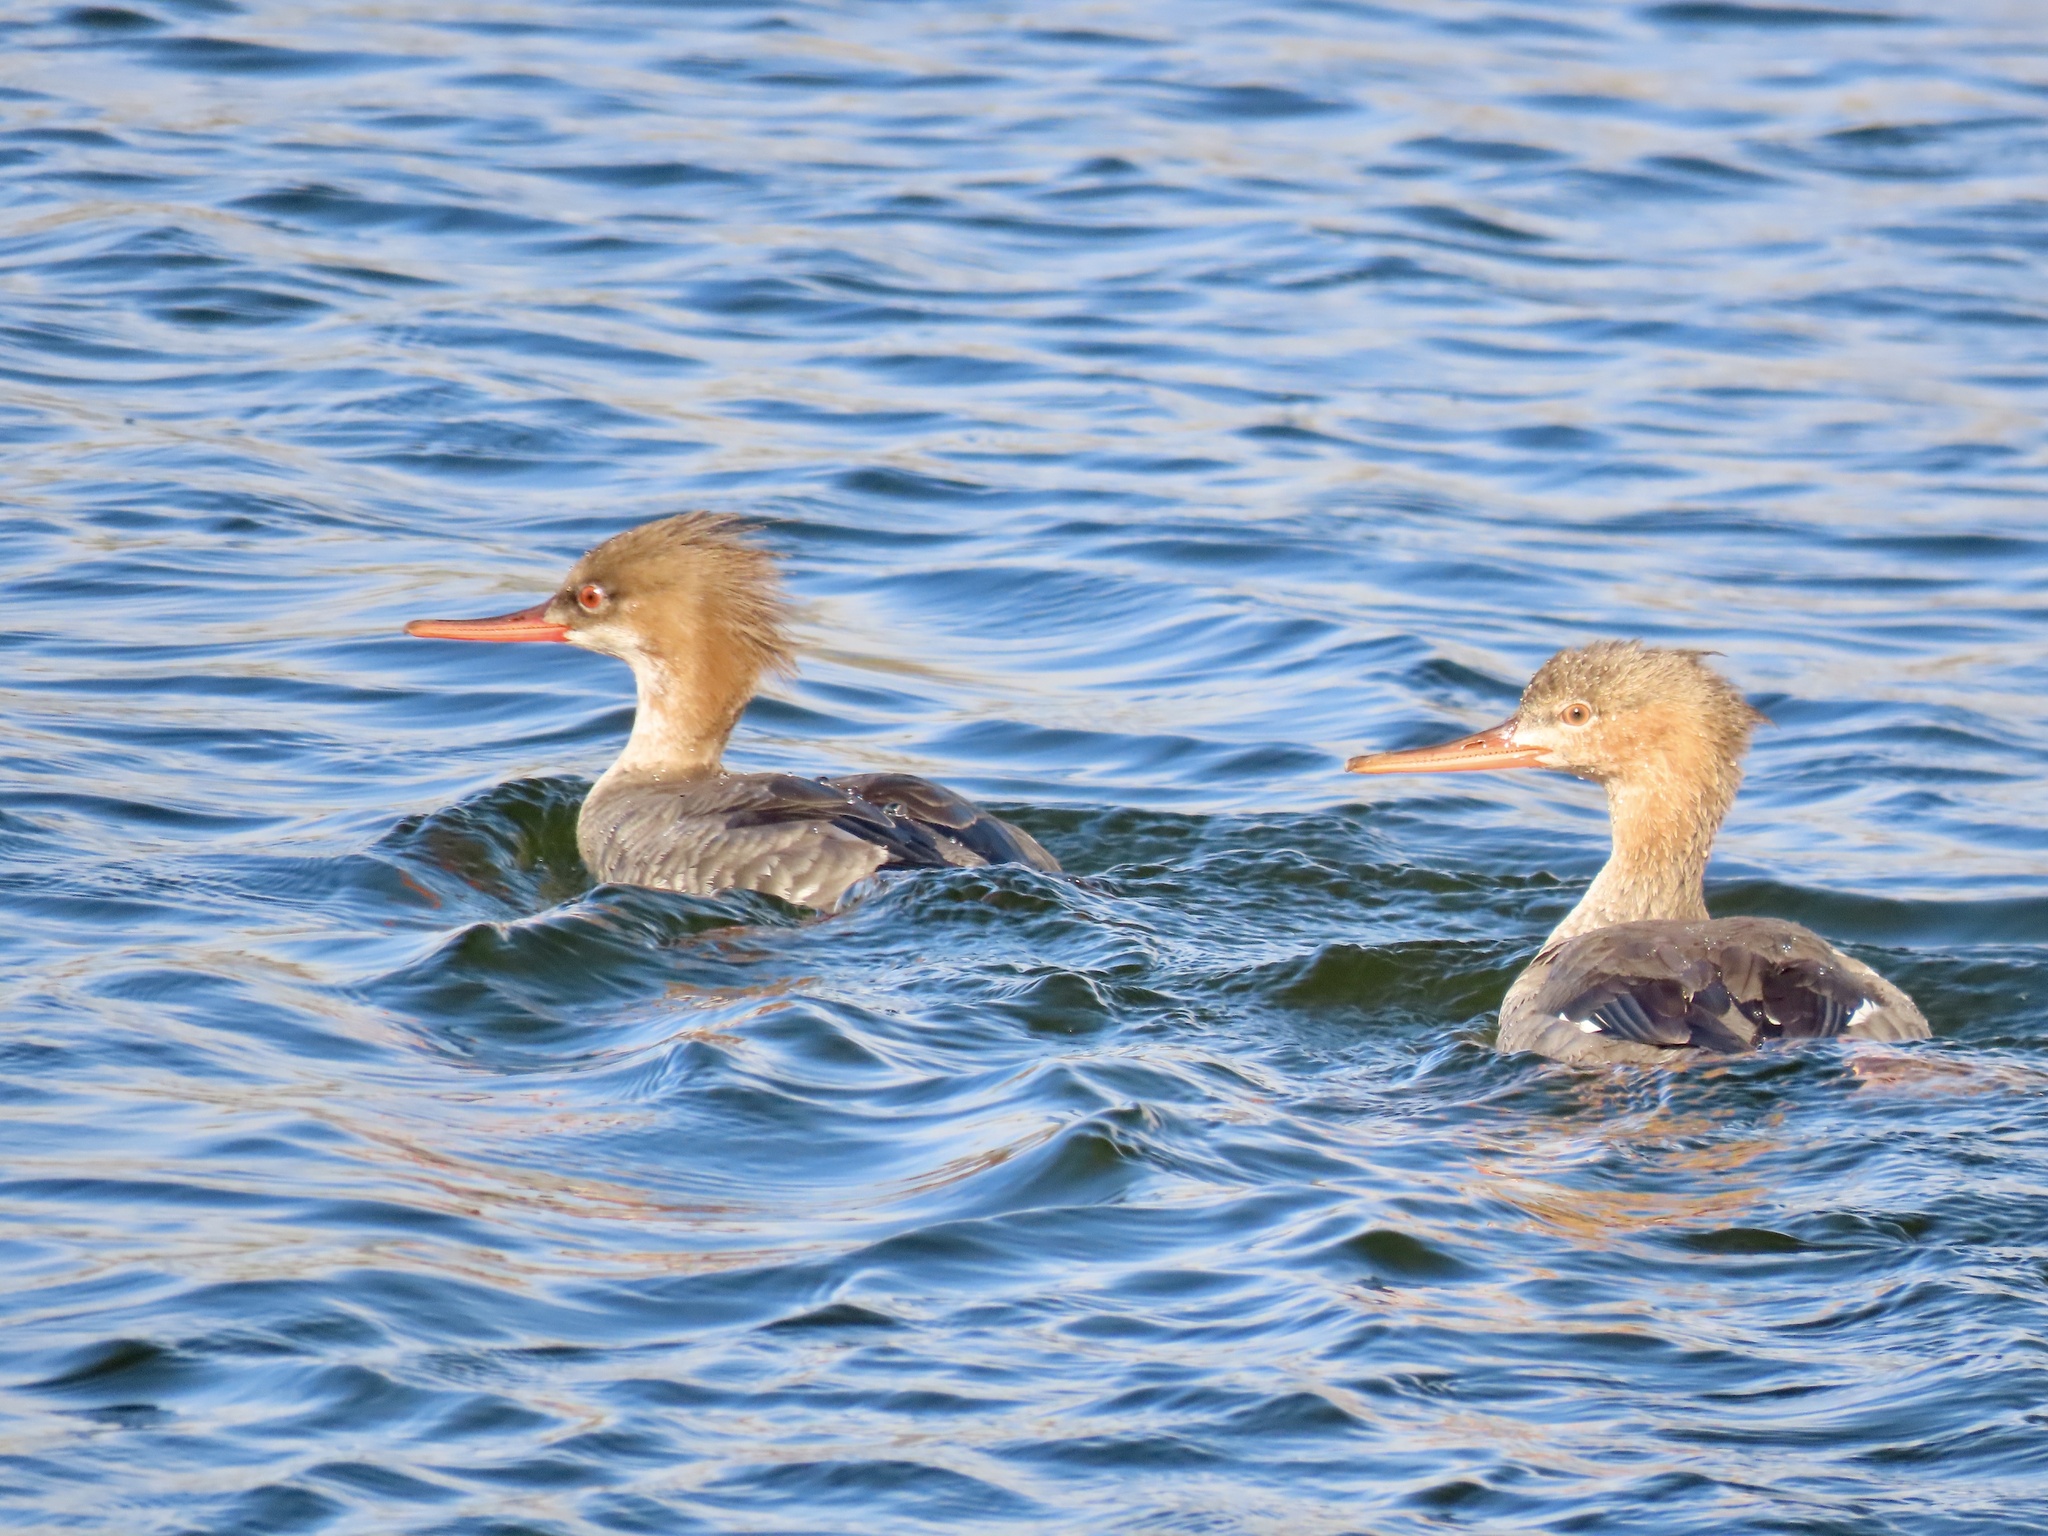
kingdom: Animalia
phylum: Chordata
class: Aves
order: Anseriformes
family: Anatidae
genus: Mergus
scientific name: Mergus serrator
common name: Red-breasted merganser
